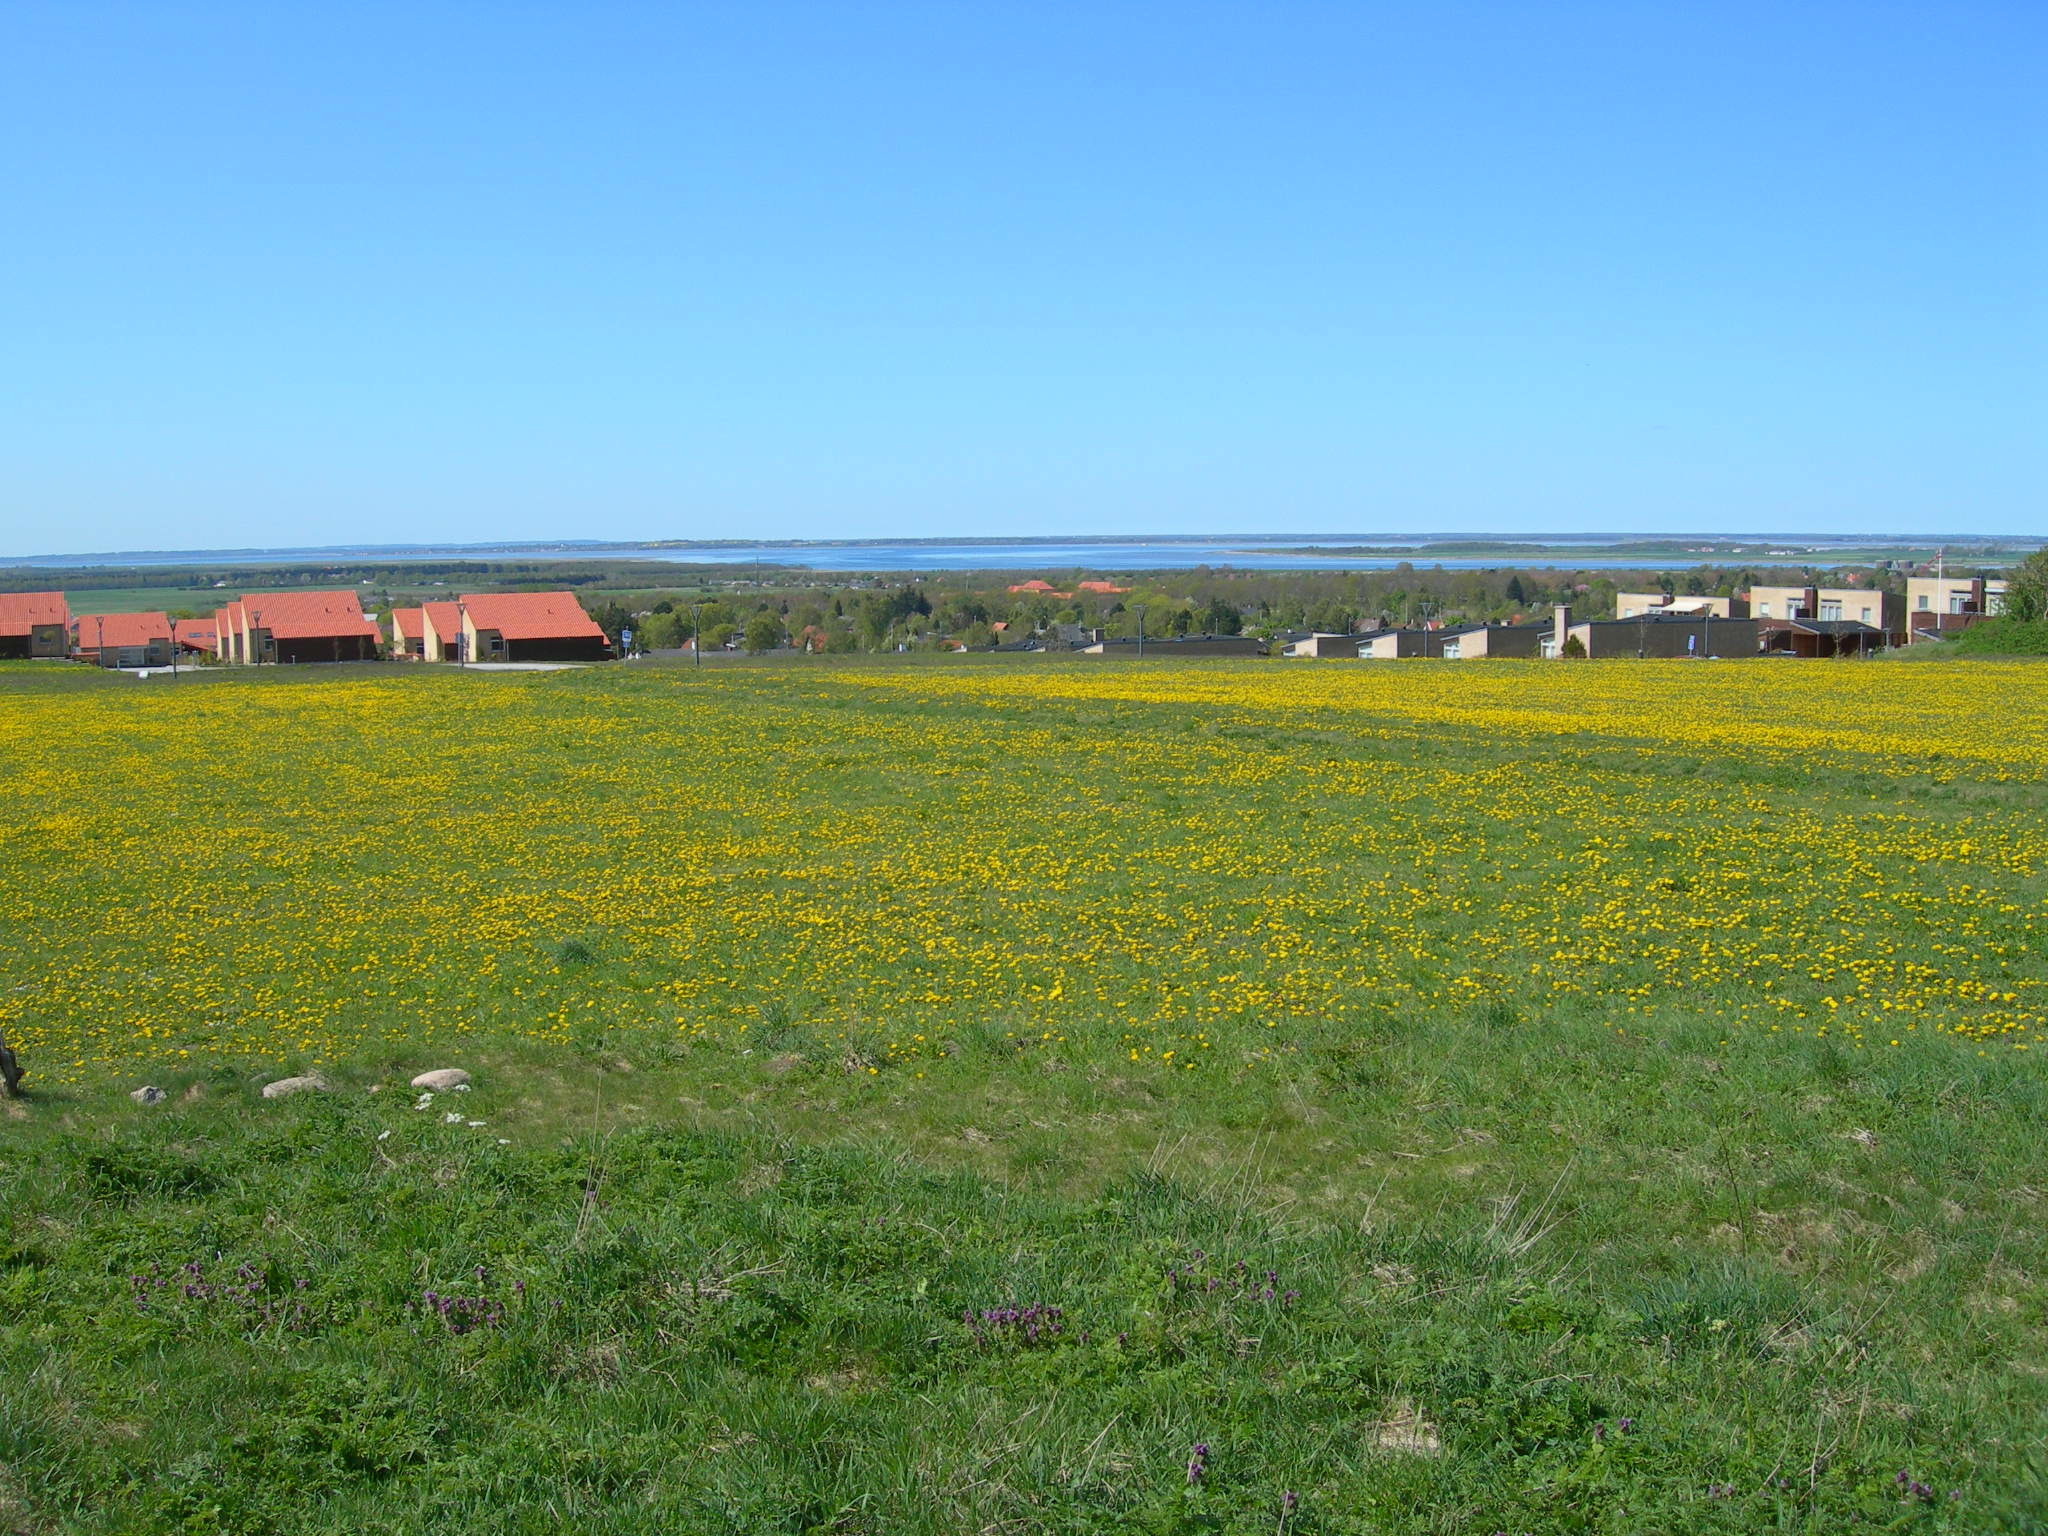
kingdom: Plantae
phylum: Tracheophyta
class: Magnoliopsida
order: Lamiales
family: Lamiaceae
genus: Lamium
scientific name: Lamium purpureum
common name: Red dead-nettle
